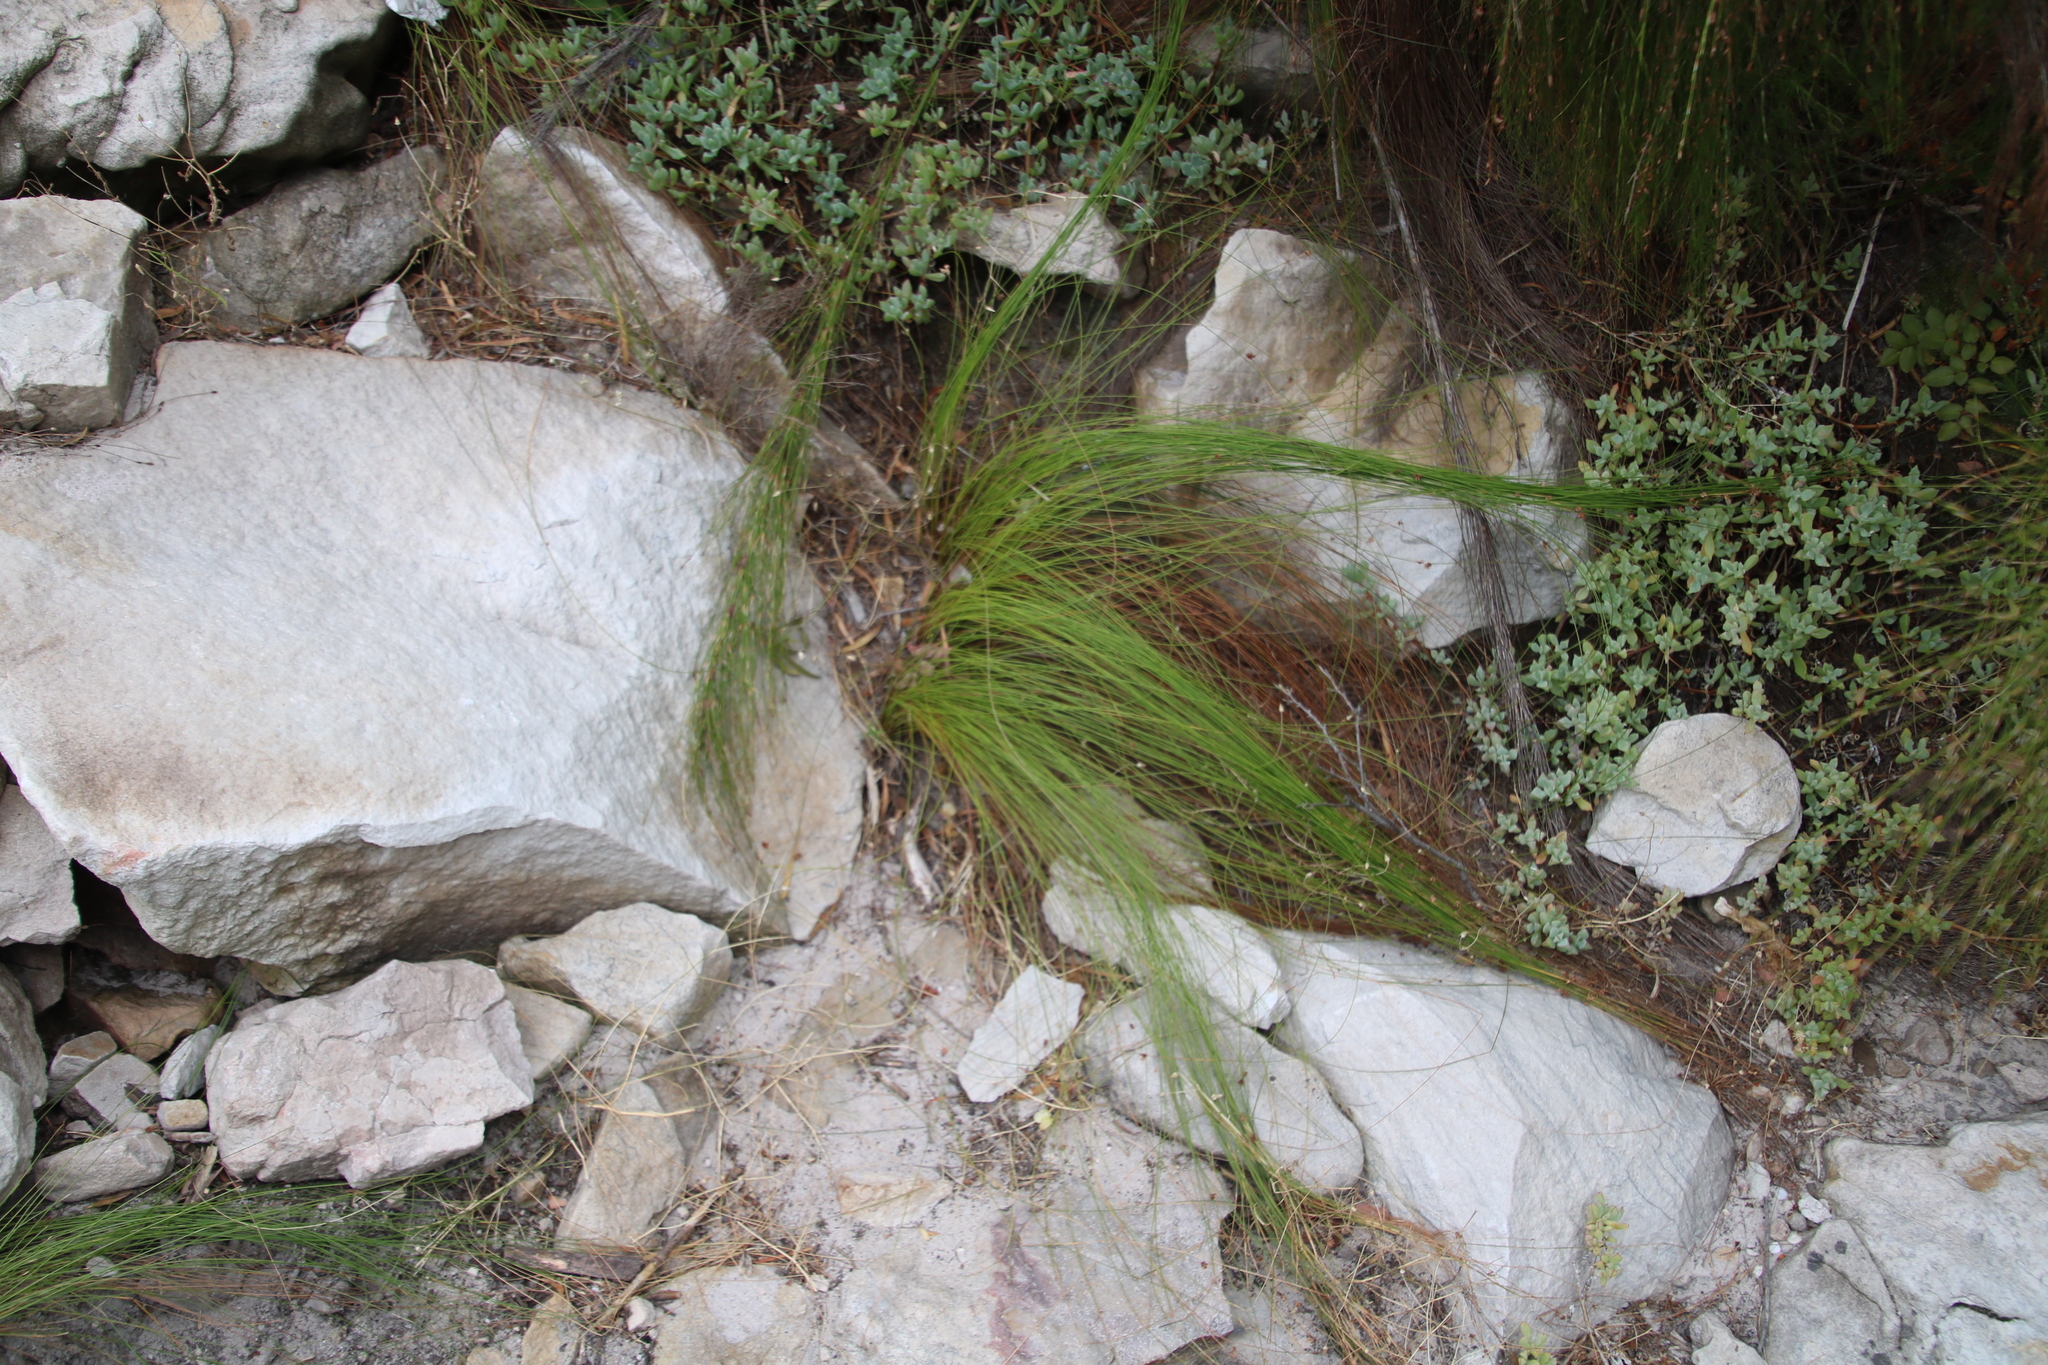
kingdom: Plantae
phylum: Tracheophyta
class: Liliopsida
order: Poales
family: Cyperaceae
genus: Ficinia
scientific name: Ficinia acuminata
